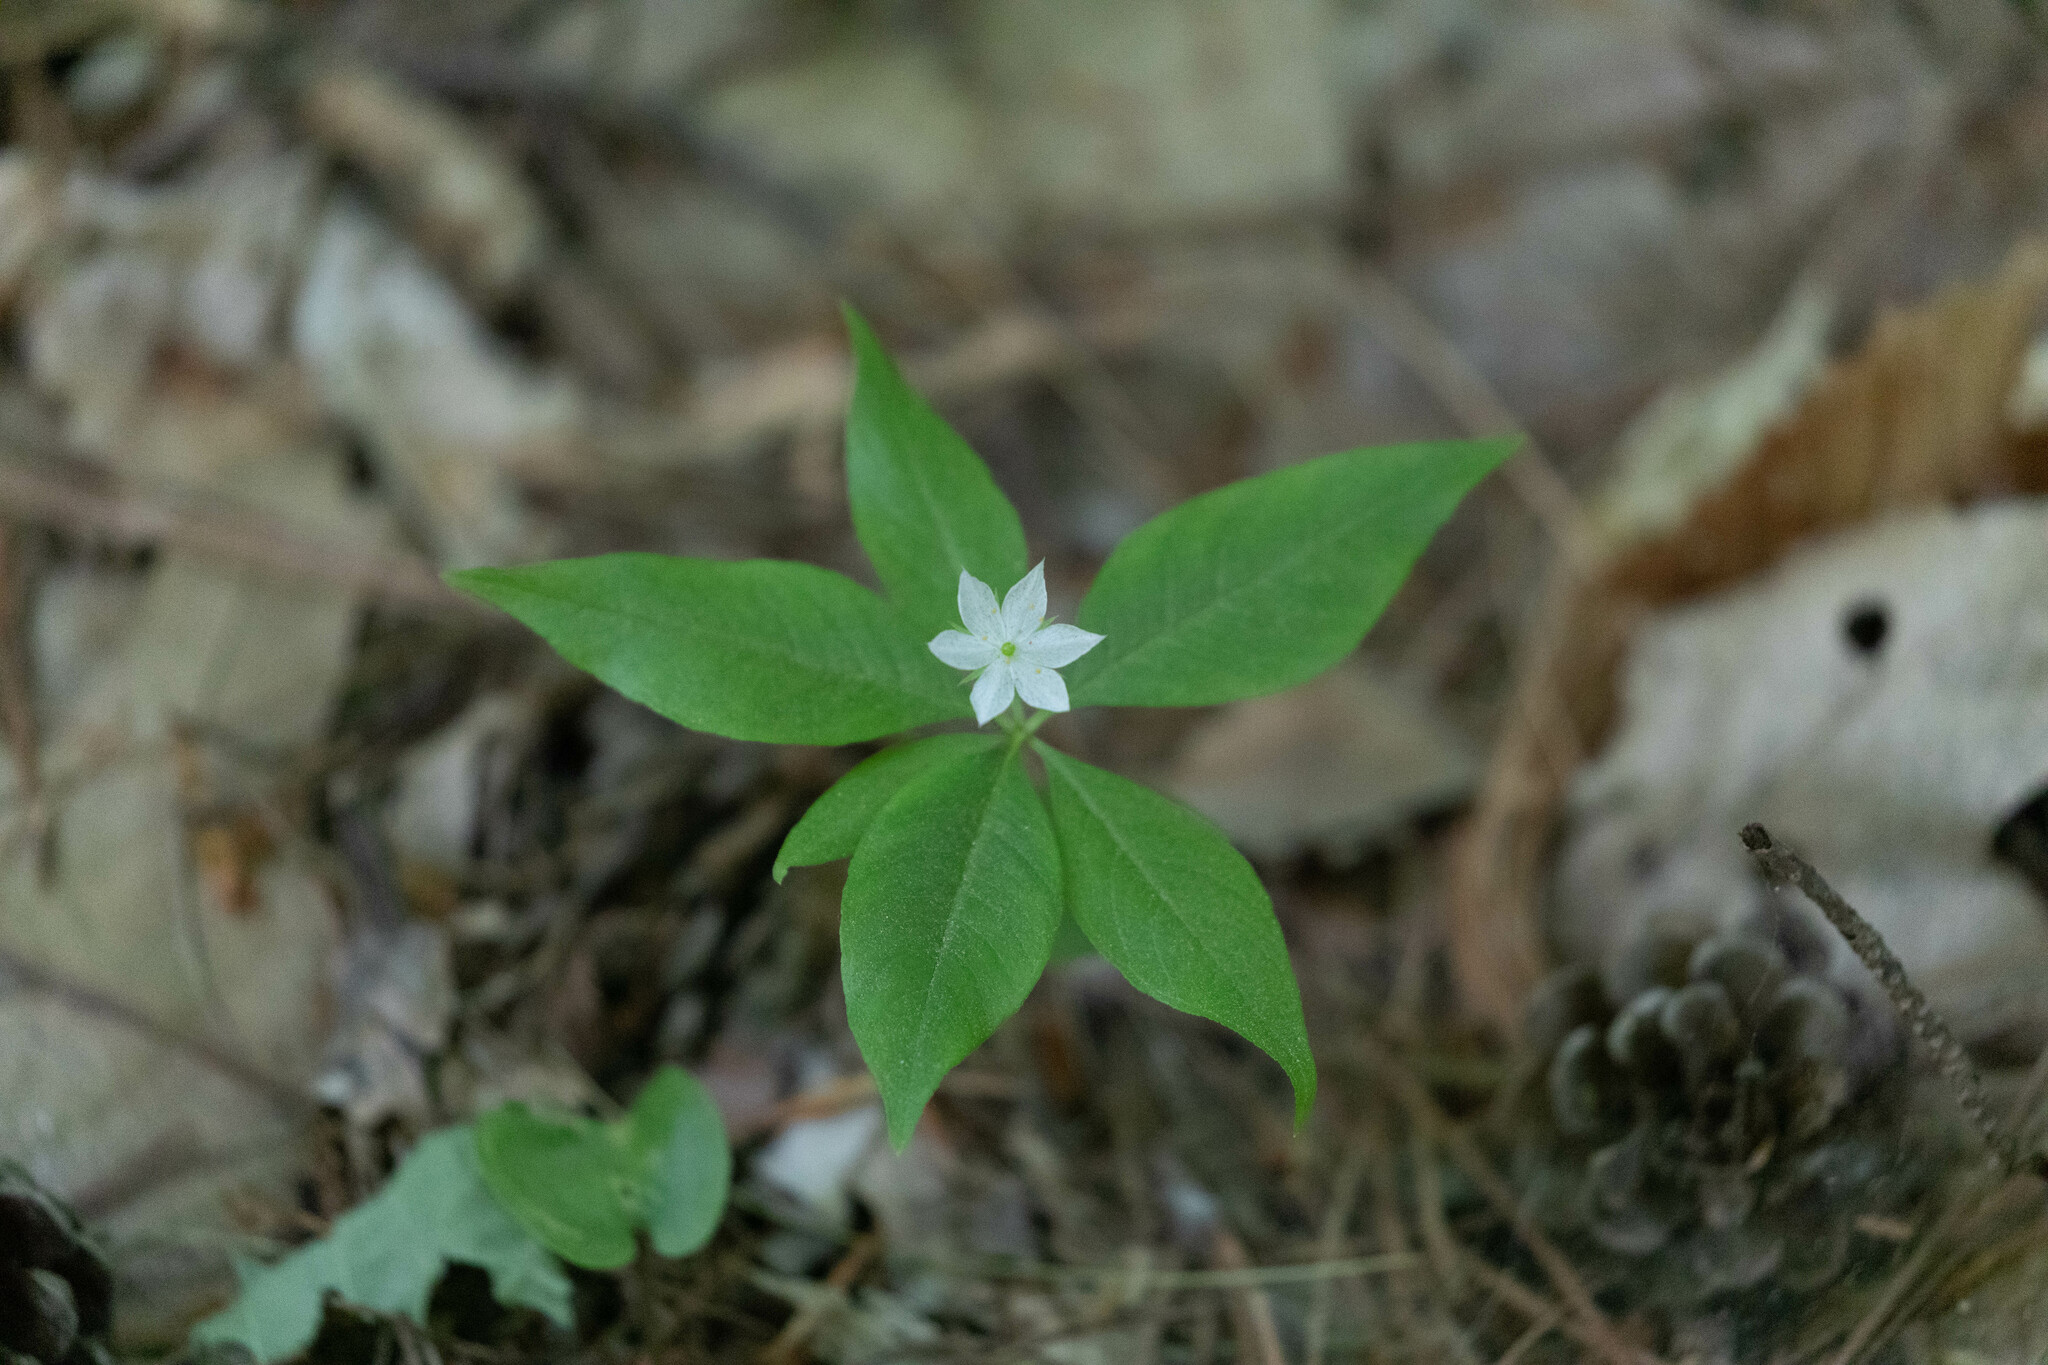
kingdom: Plantae
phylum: Tracheophyta
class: Magnoliopsida
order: Ericales
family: Primulaceae
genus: Lysimachia
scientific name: Lysimachia borealis
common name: American starflower
